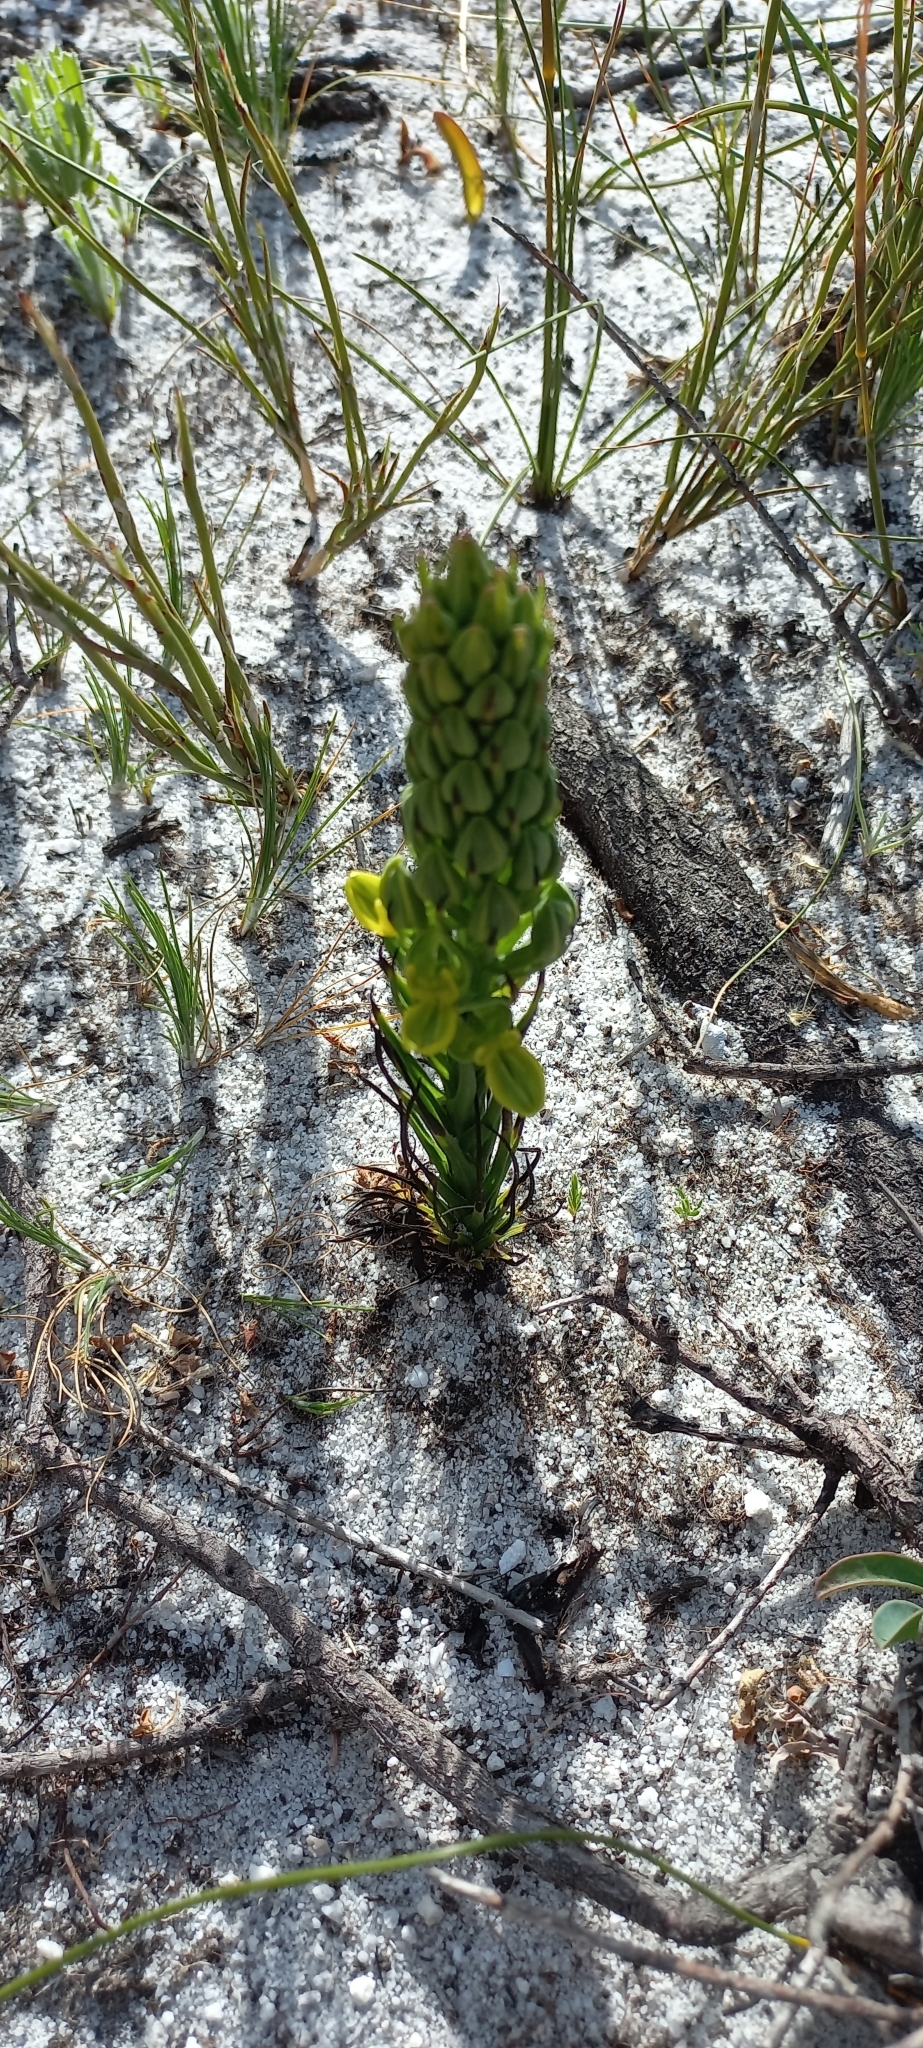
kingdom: Plantae
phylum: Tracheophyta
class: Liliopsida
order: Asparagales
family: Orchidaceae
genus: Ceratandra
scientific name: Ceratandra atrata
